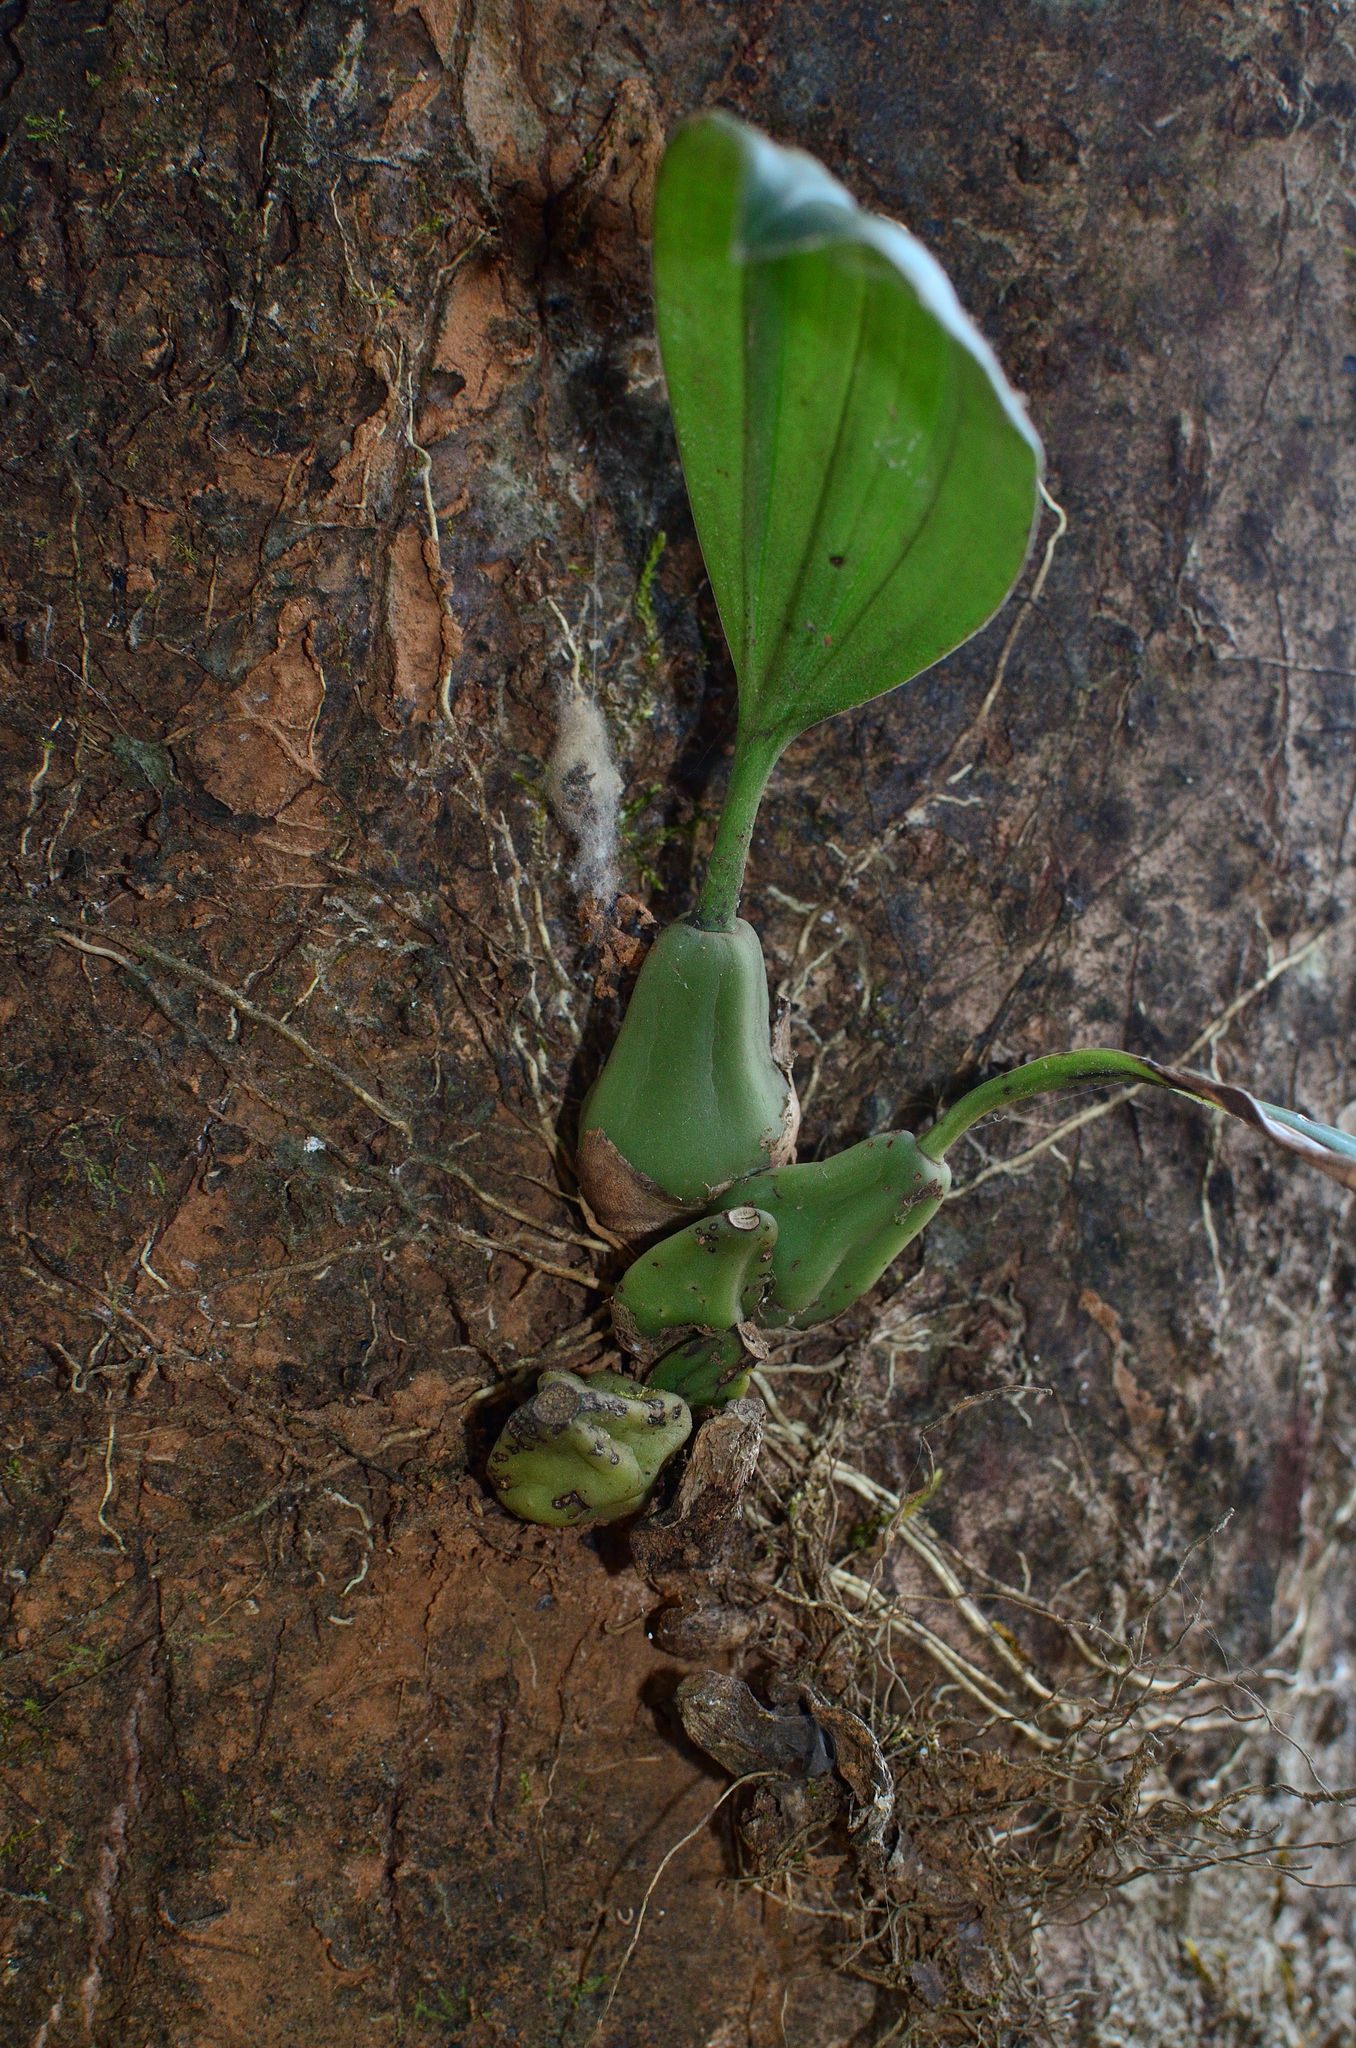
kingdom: Plantae
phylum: Tracheophyta
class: Liliopsida
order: Asparagales
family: Orchidaceae
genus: Coelogyne
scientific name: Coelogyne pallida
